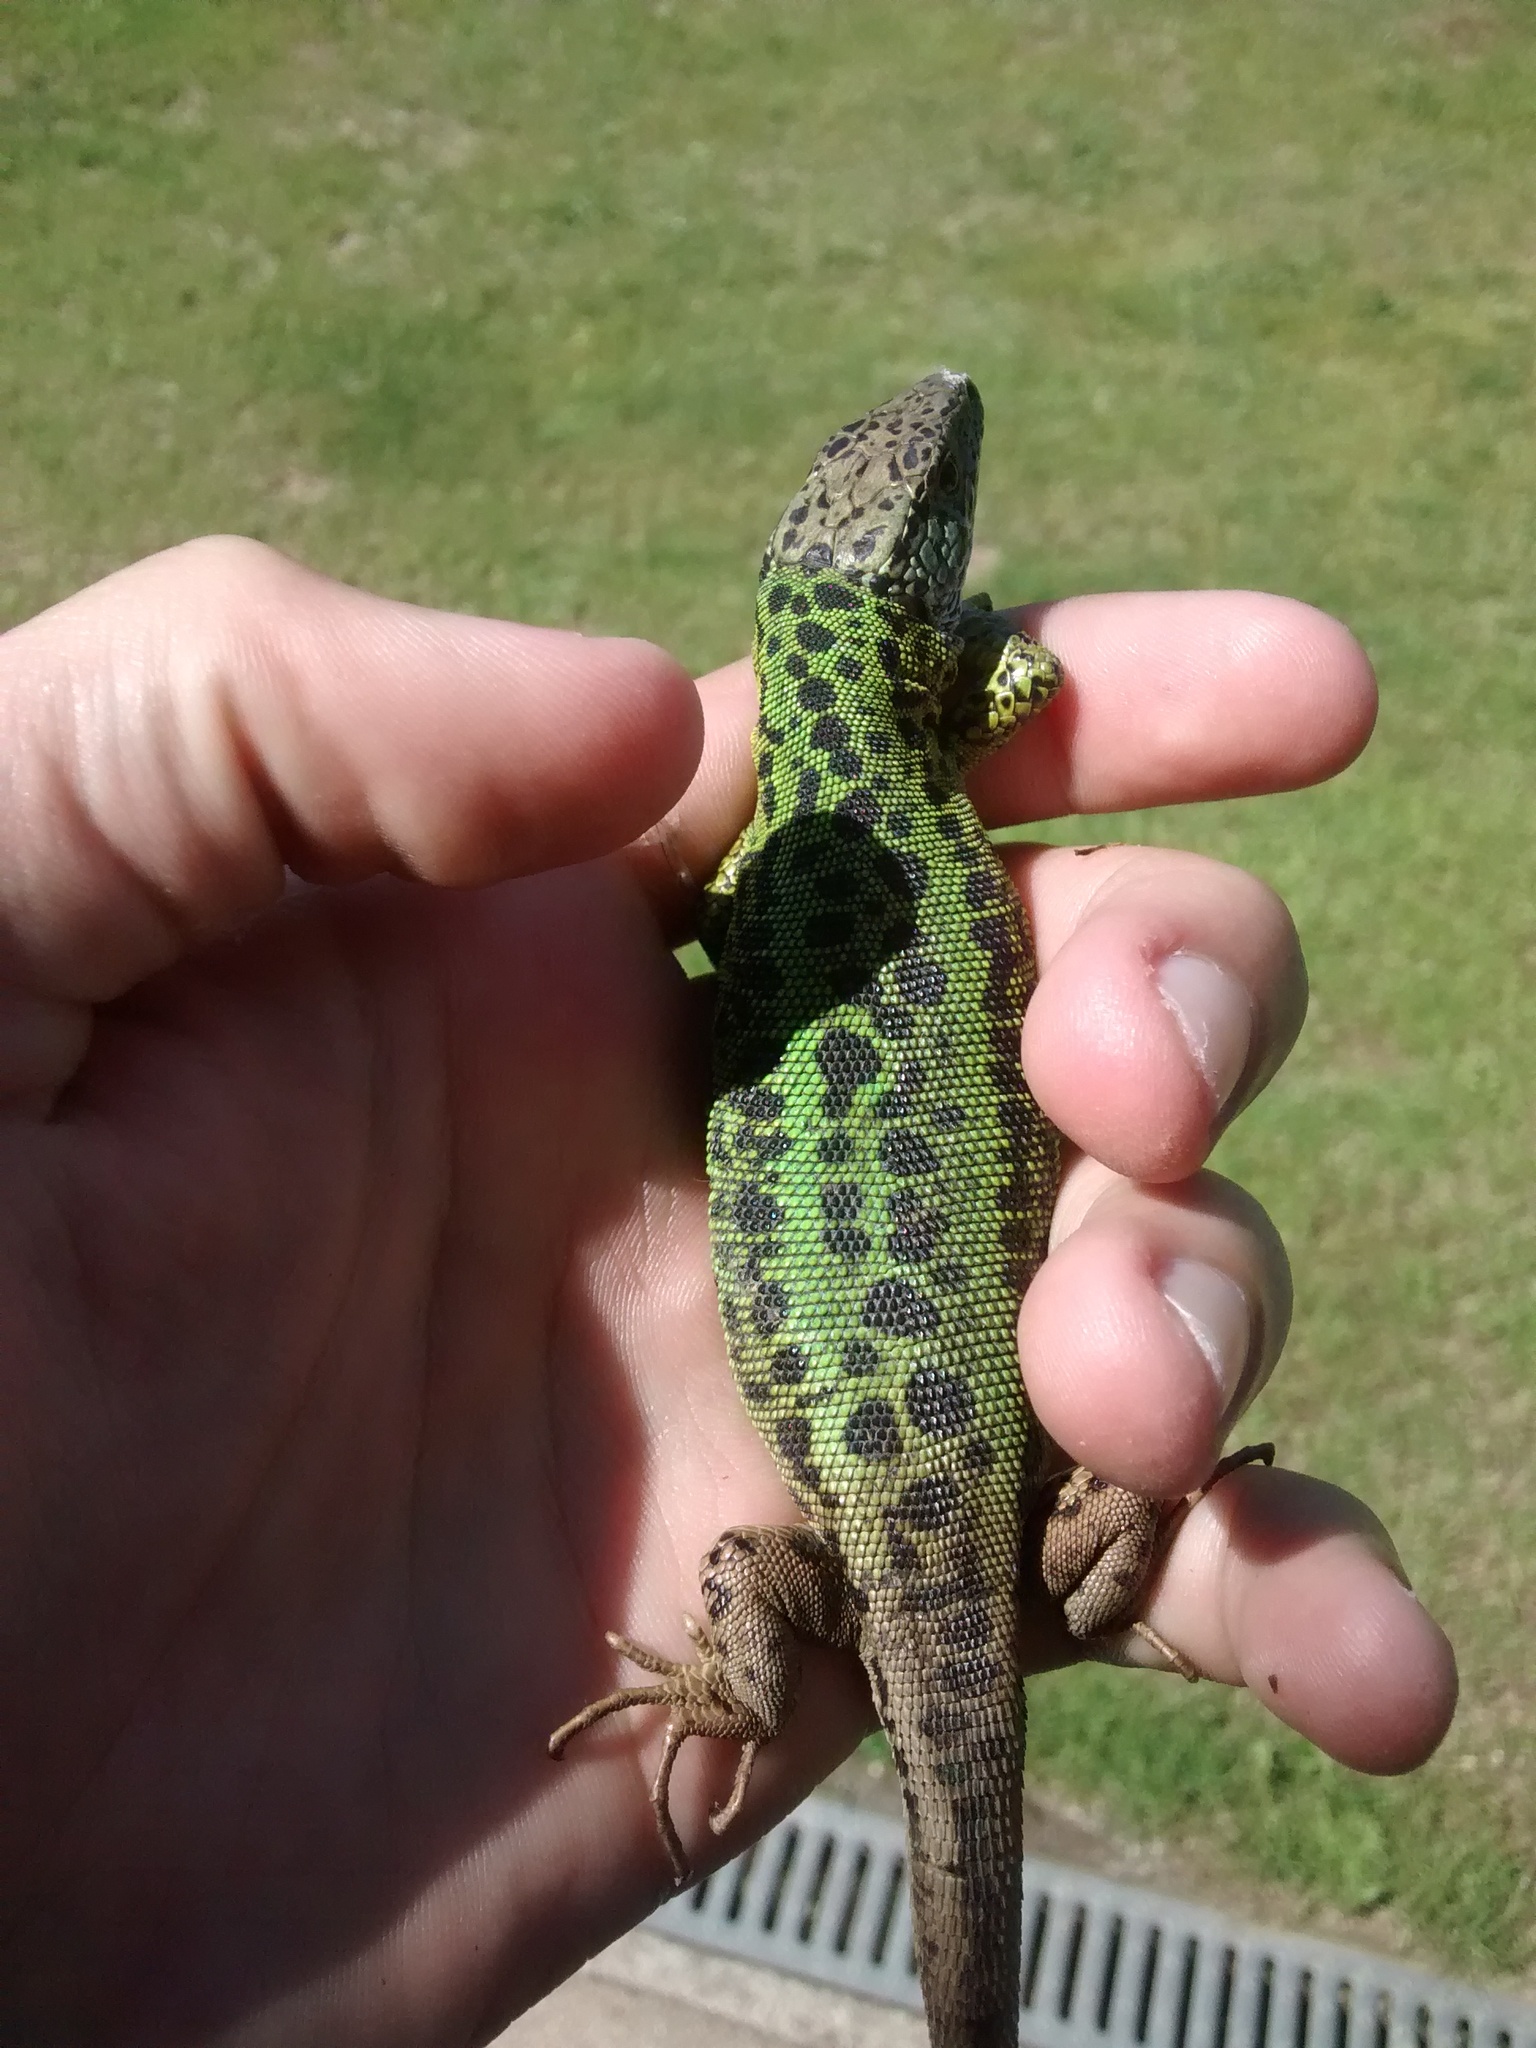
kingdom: Animalia
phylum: Chordata
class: Squamata
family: Lacertidae
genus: Lacerta
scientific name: Lacerta schreiberi
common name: Iberian emerald lizard
